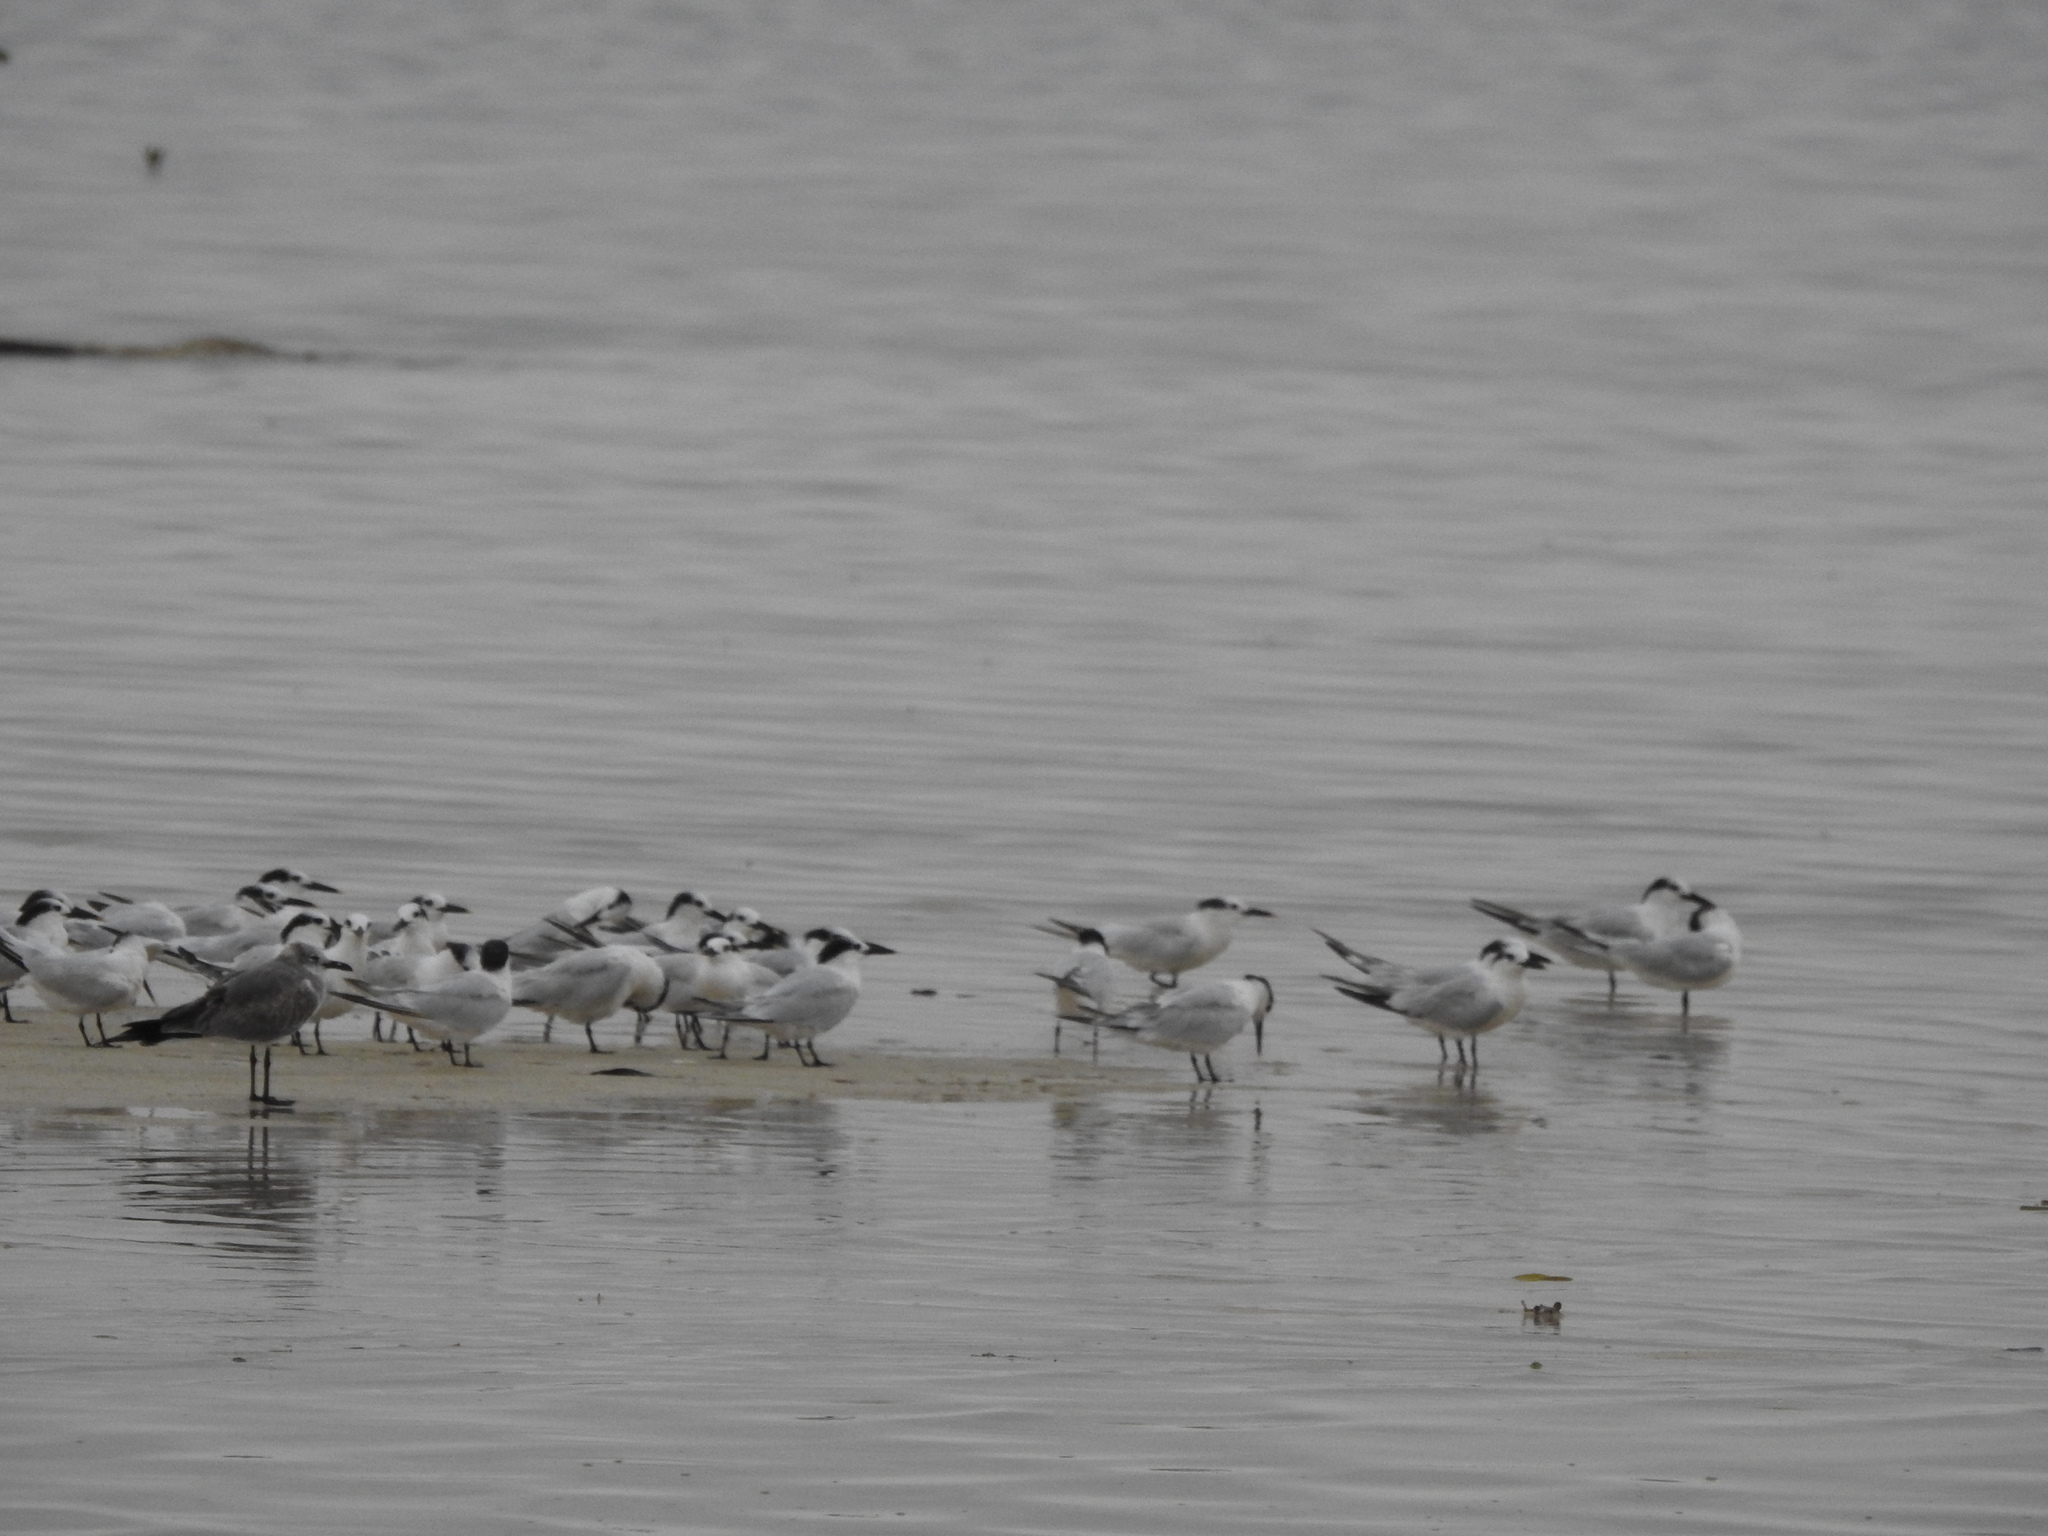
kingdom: Animalia
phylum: Chordata
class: Aves
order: Charadriiformes
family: Laridae
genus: Thalasseus
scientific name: Thalasseus sandvicensis
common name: Sandwich tern
